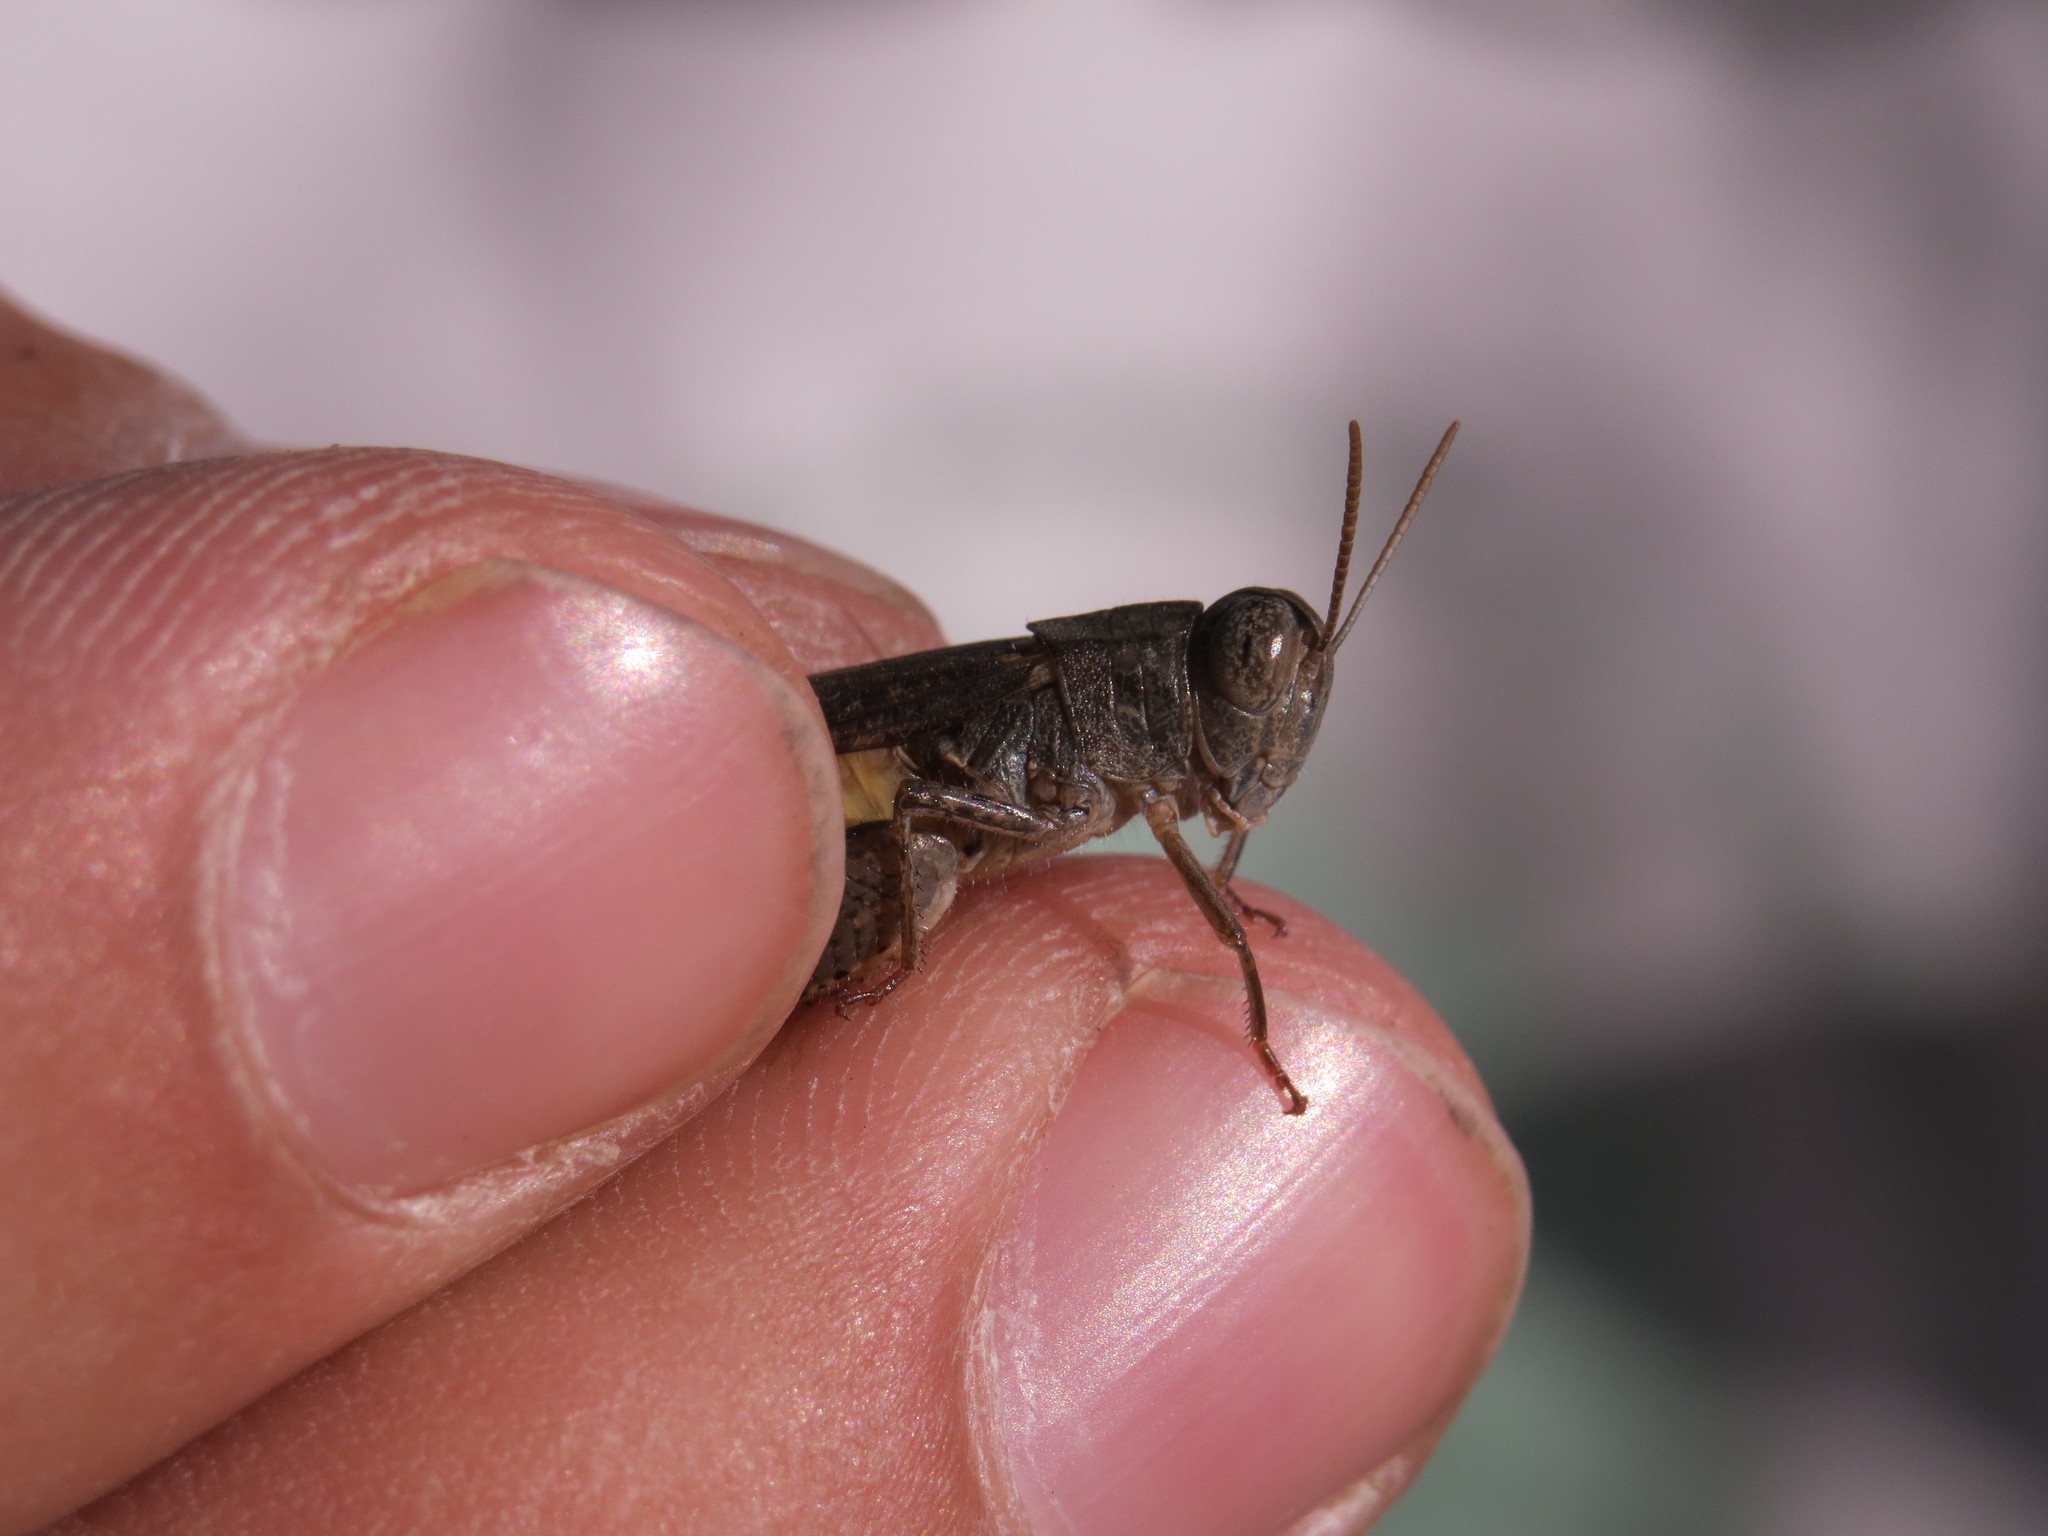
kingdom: Animalia
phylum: Arthropoda
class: Insecta
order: Orthoptera
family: Acrididae
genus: Calliptamus
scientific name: Calliptamus siciliae
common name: Pygmy pincer grasshopper
